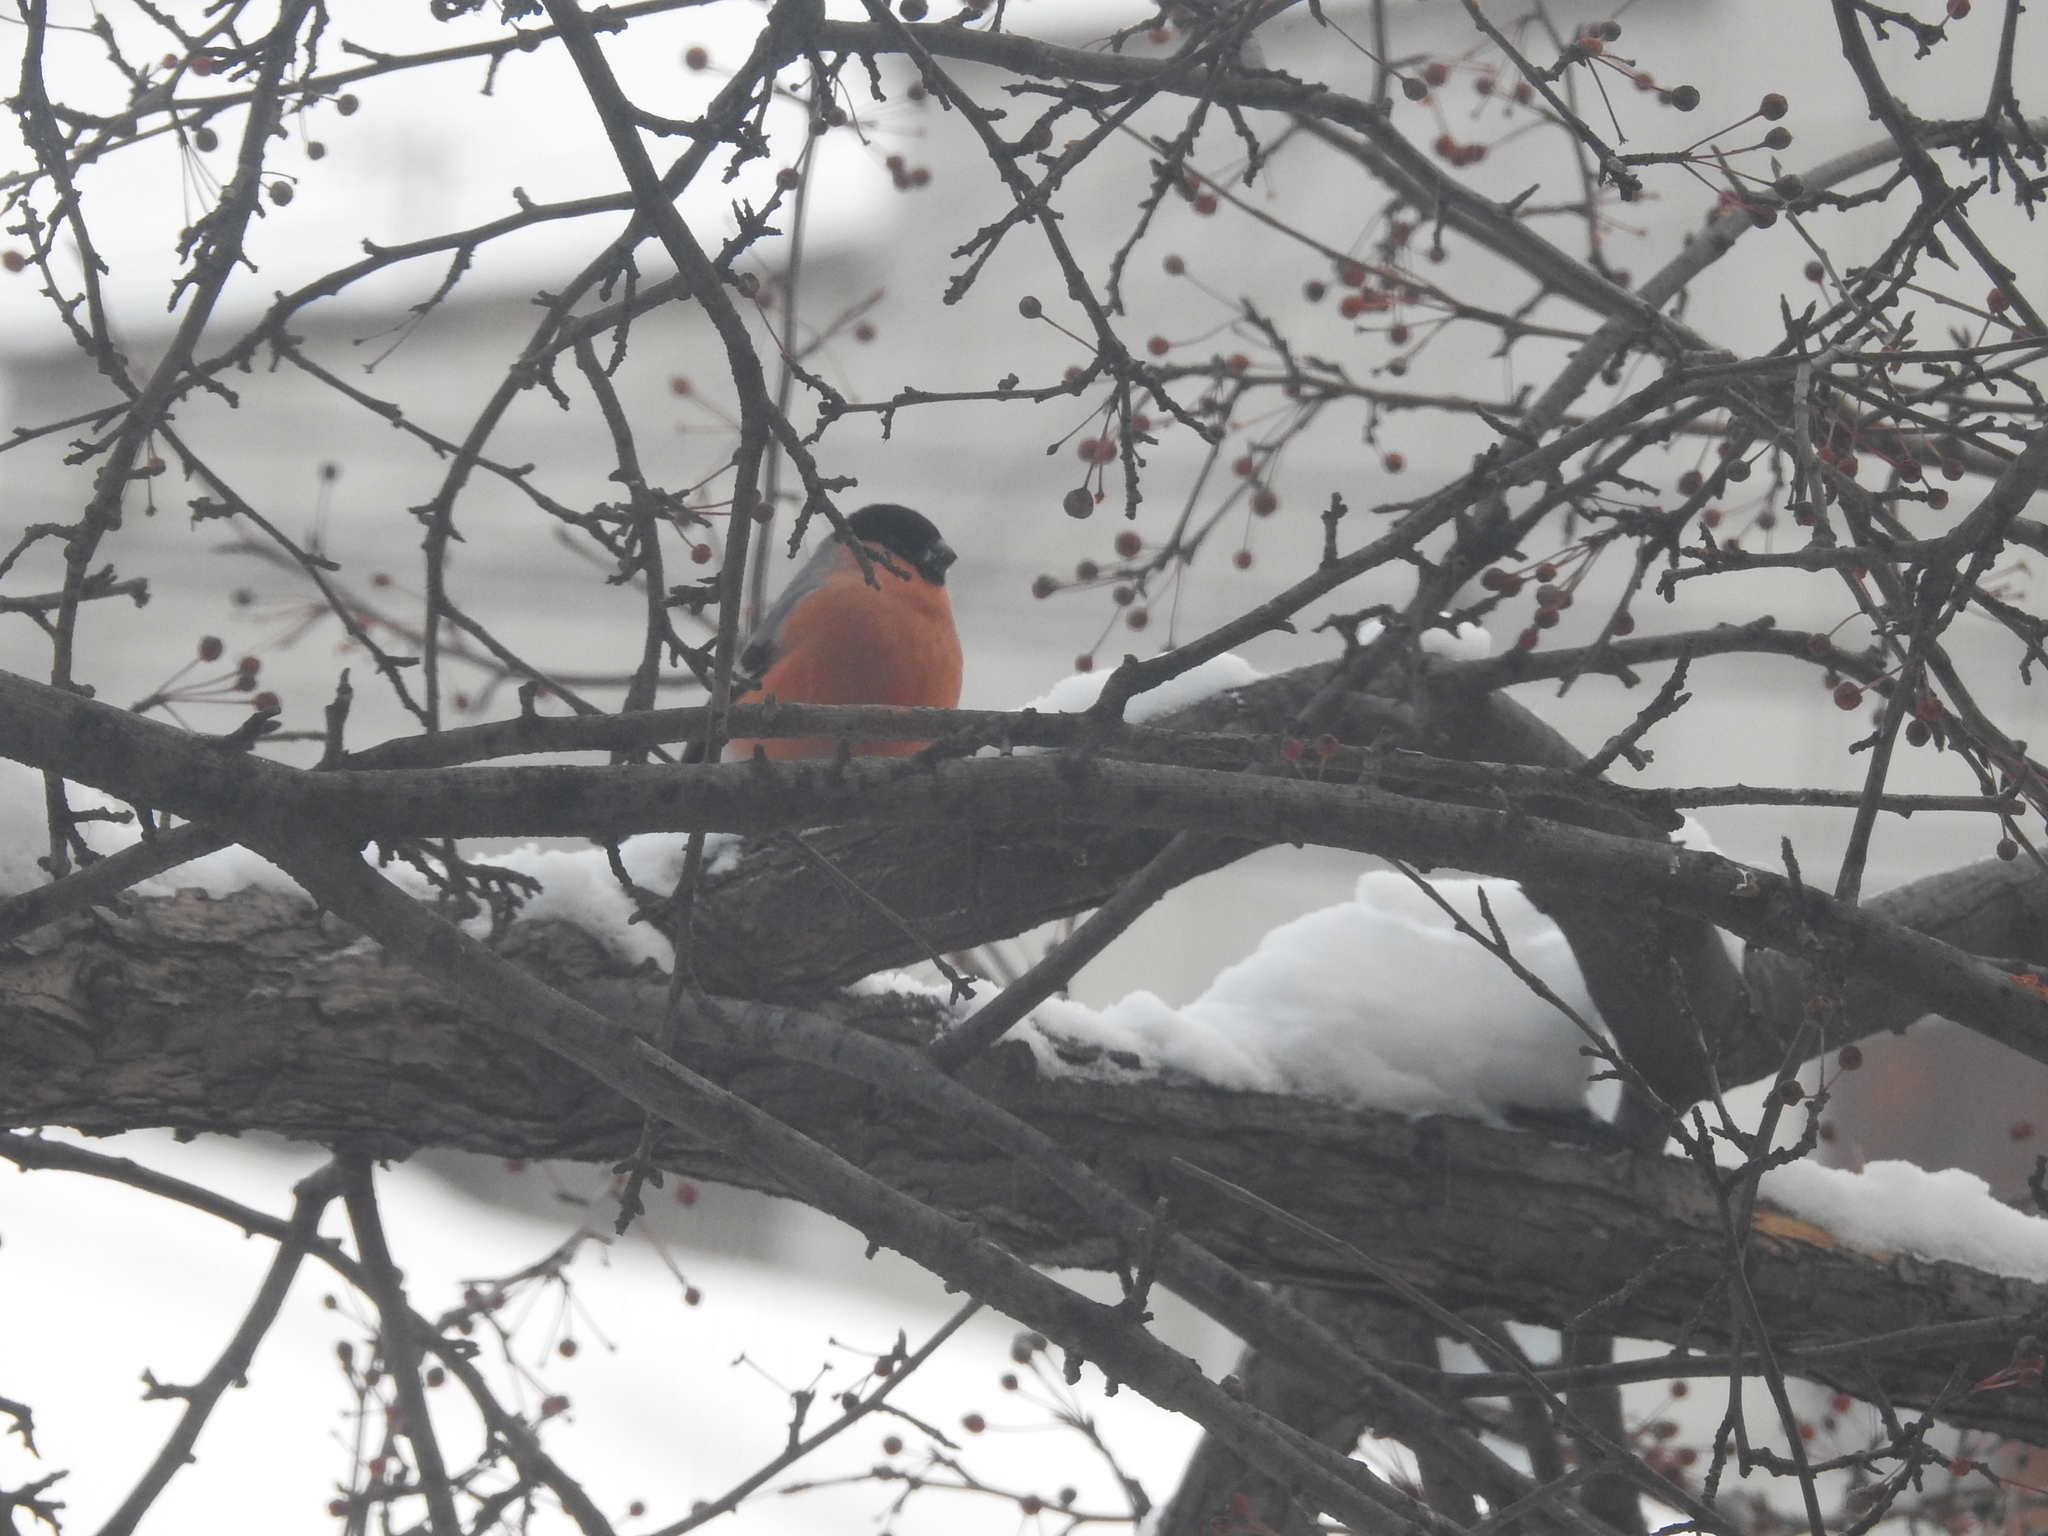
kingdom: Animalia
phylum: Chordata
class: Aves
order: Passeriformes
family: Fringillidae
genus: Pyrrhula
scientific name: Pyrrhula pyrrhula
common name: Eurasian bullfinch
